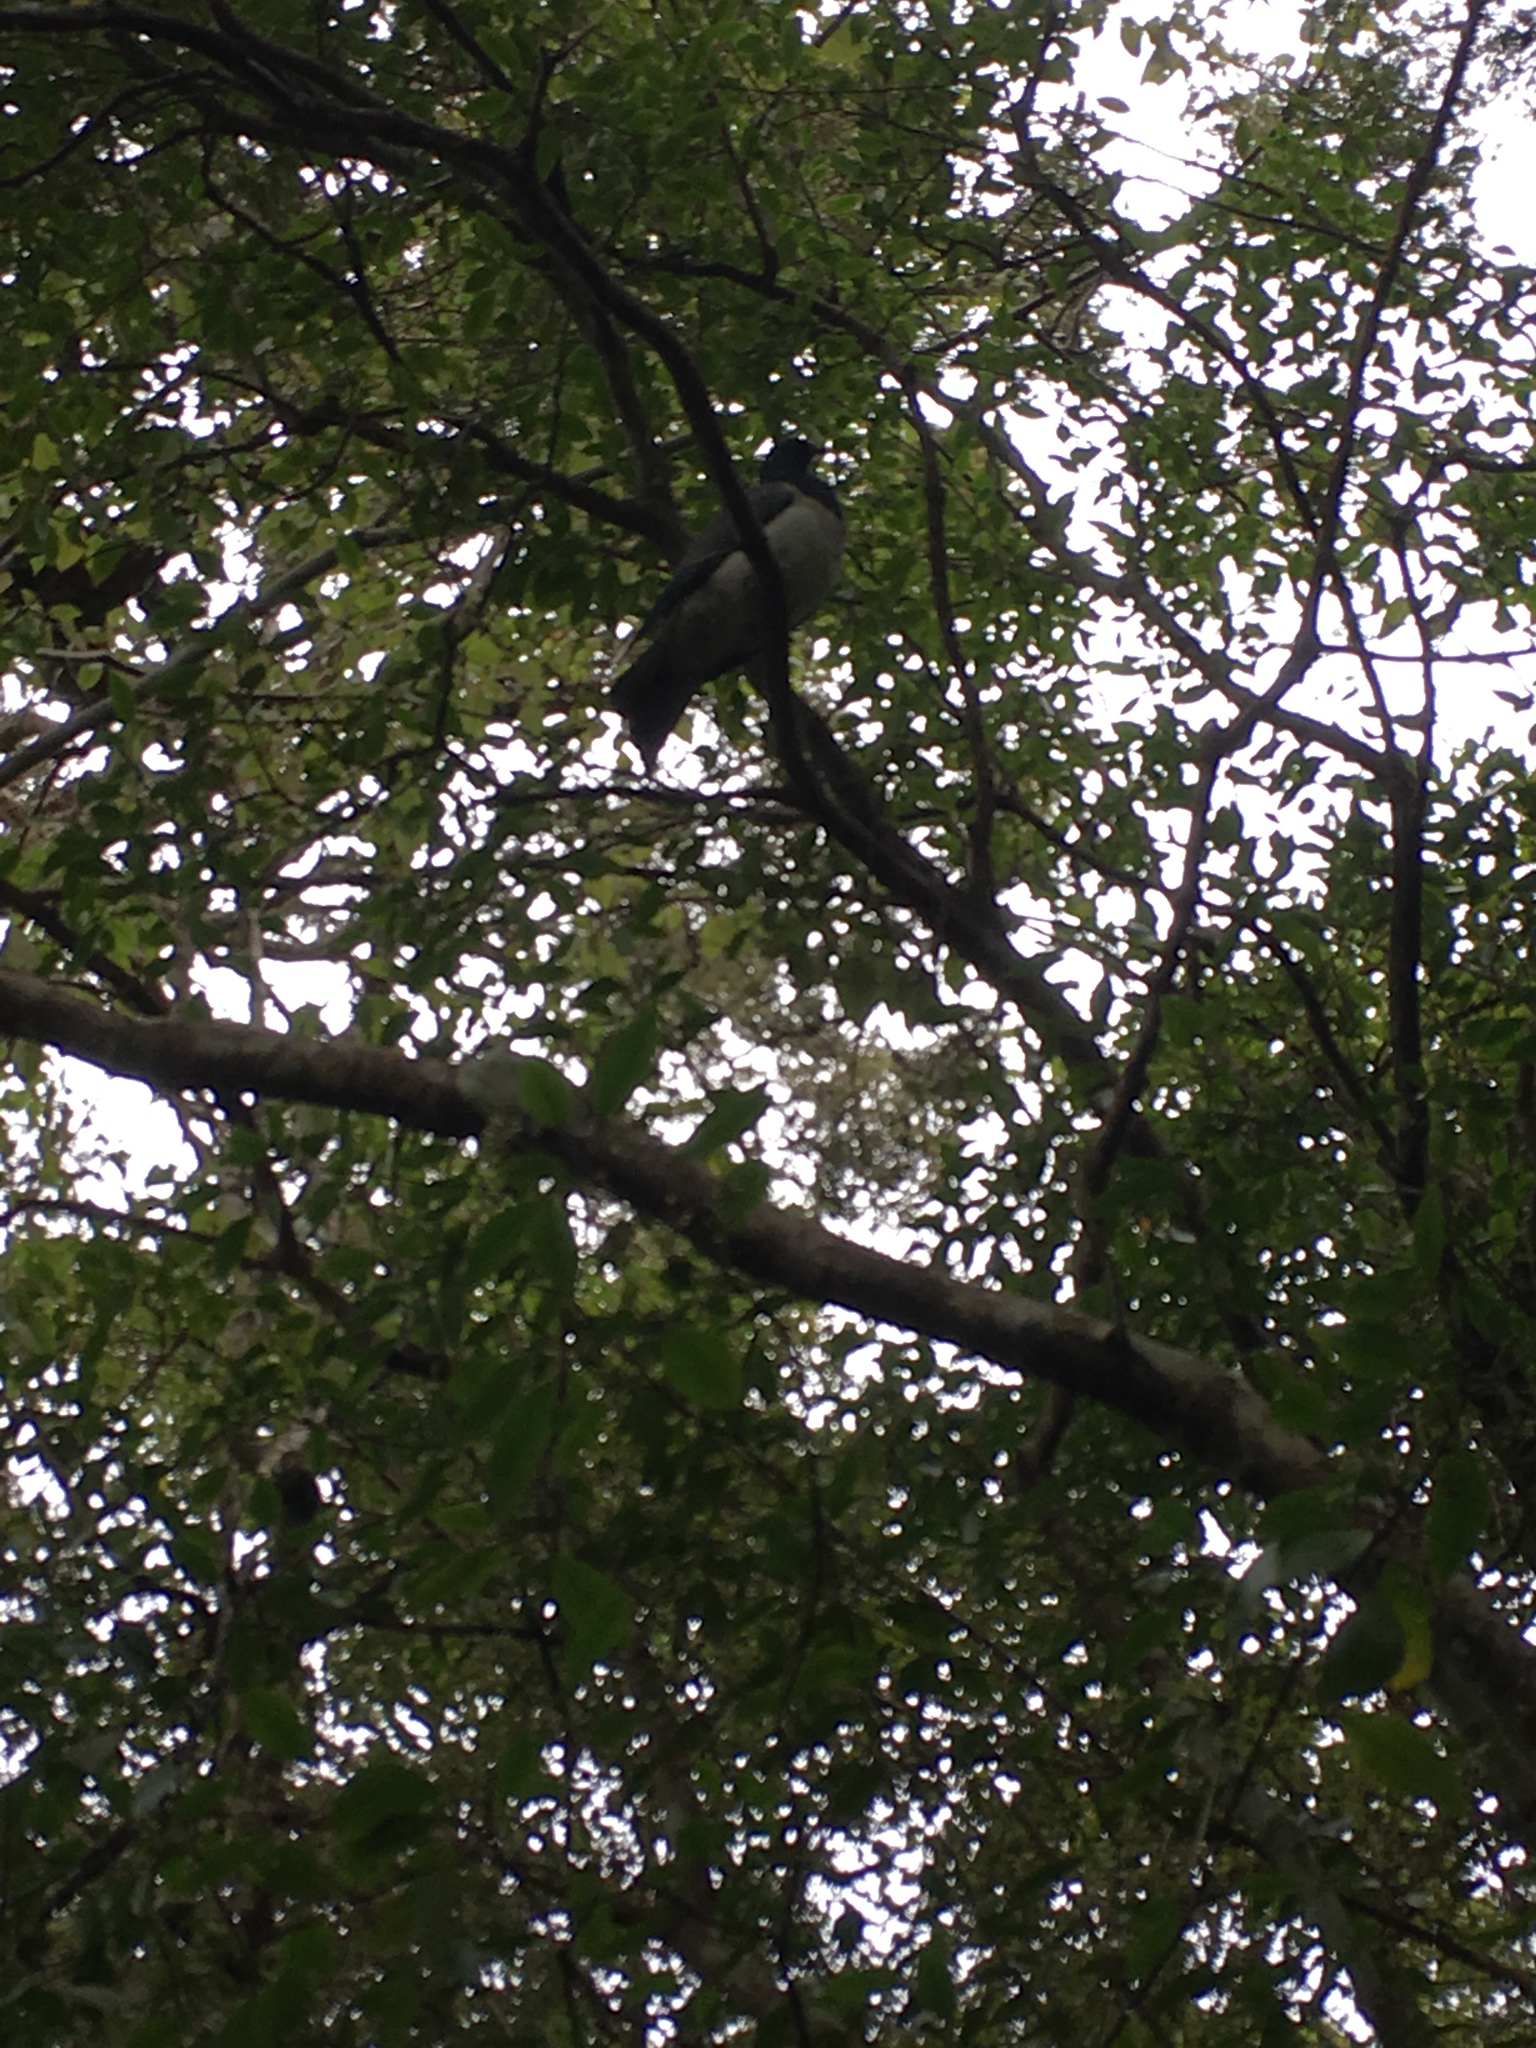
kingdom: Animalia
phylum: Chordata
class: Aves
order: Columbiformes
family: Columbidae
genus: Hemiphaga
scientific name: Hemiphaga novaeseelandiae
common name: New zealand pigeon
